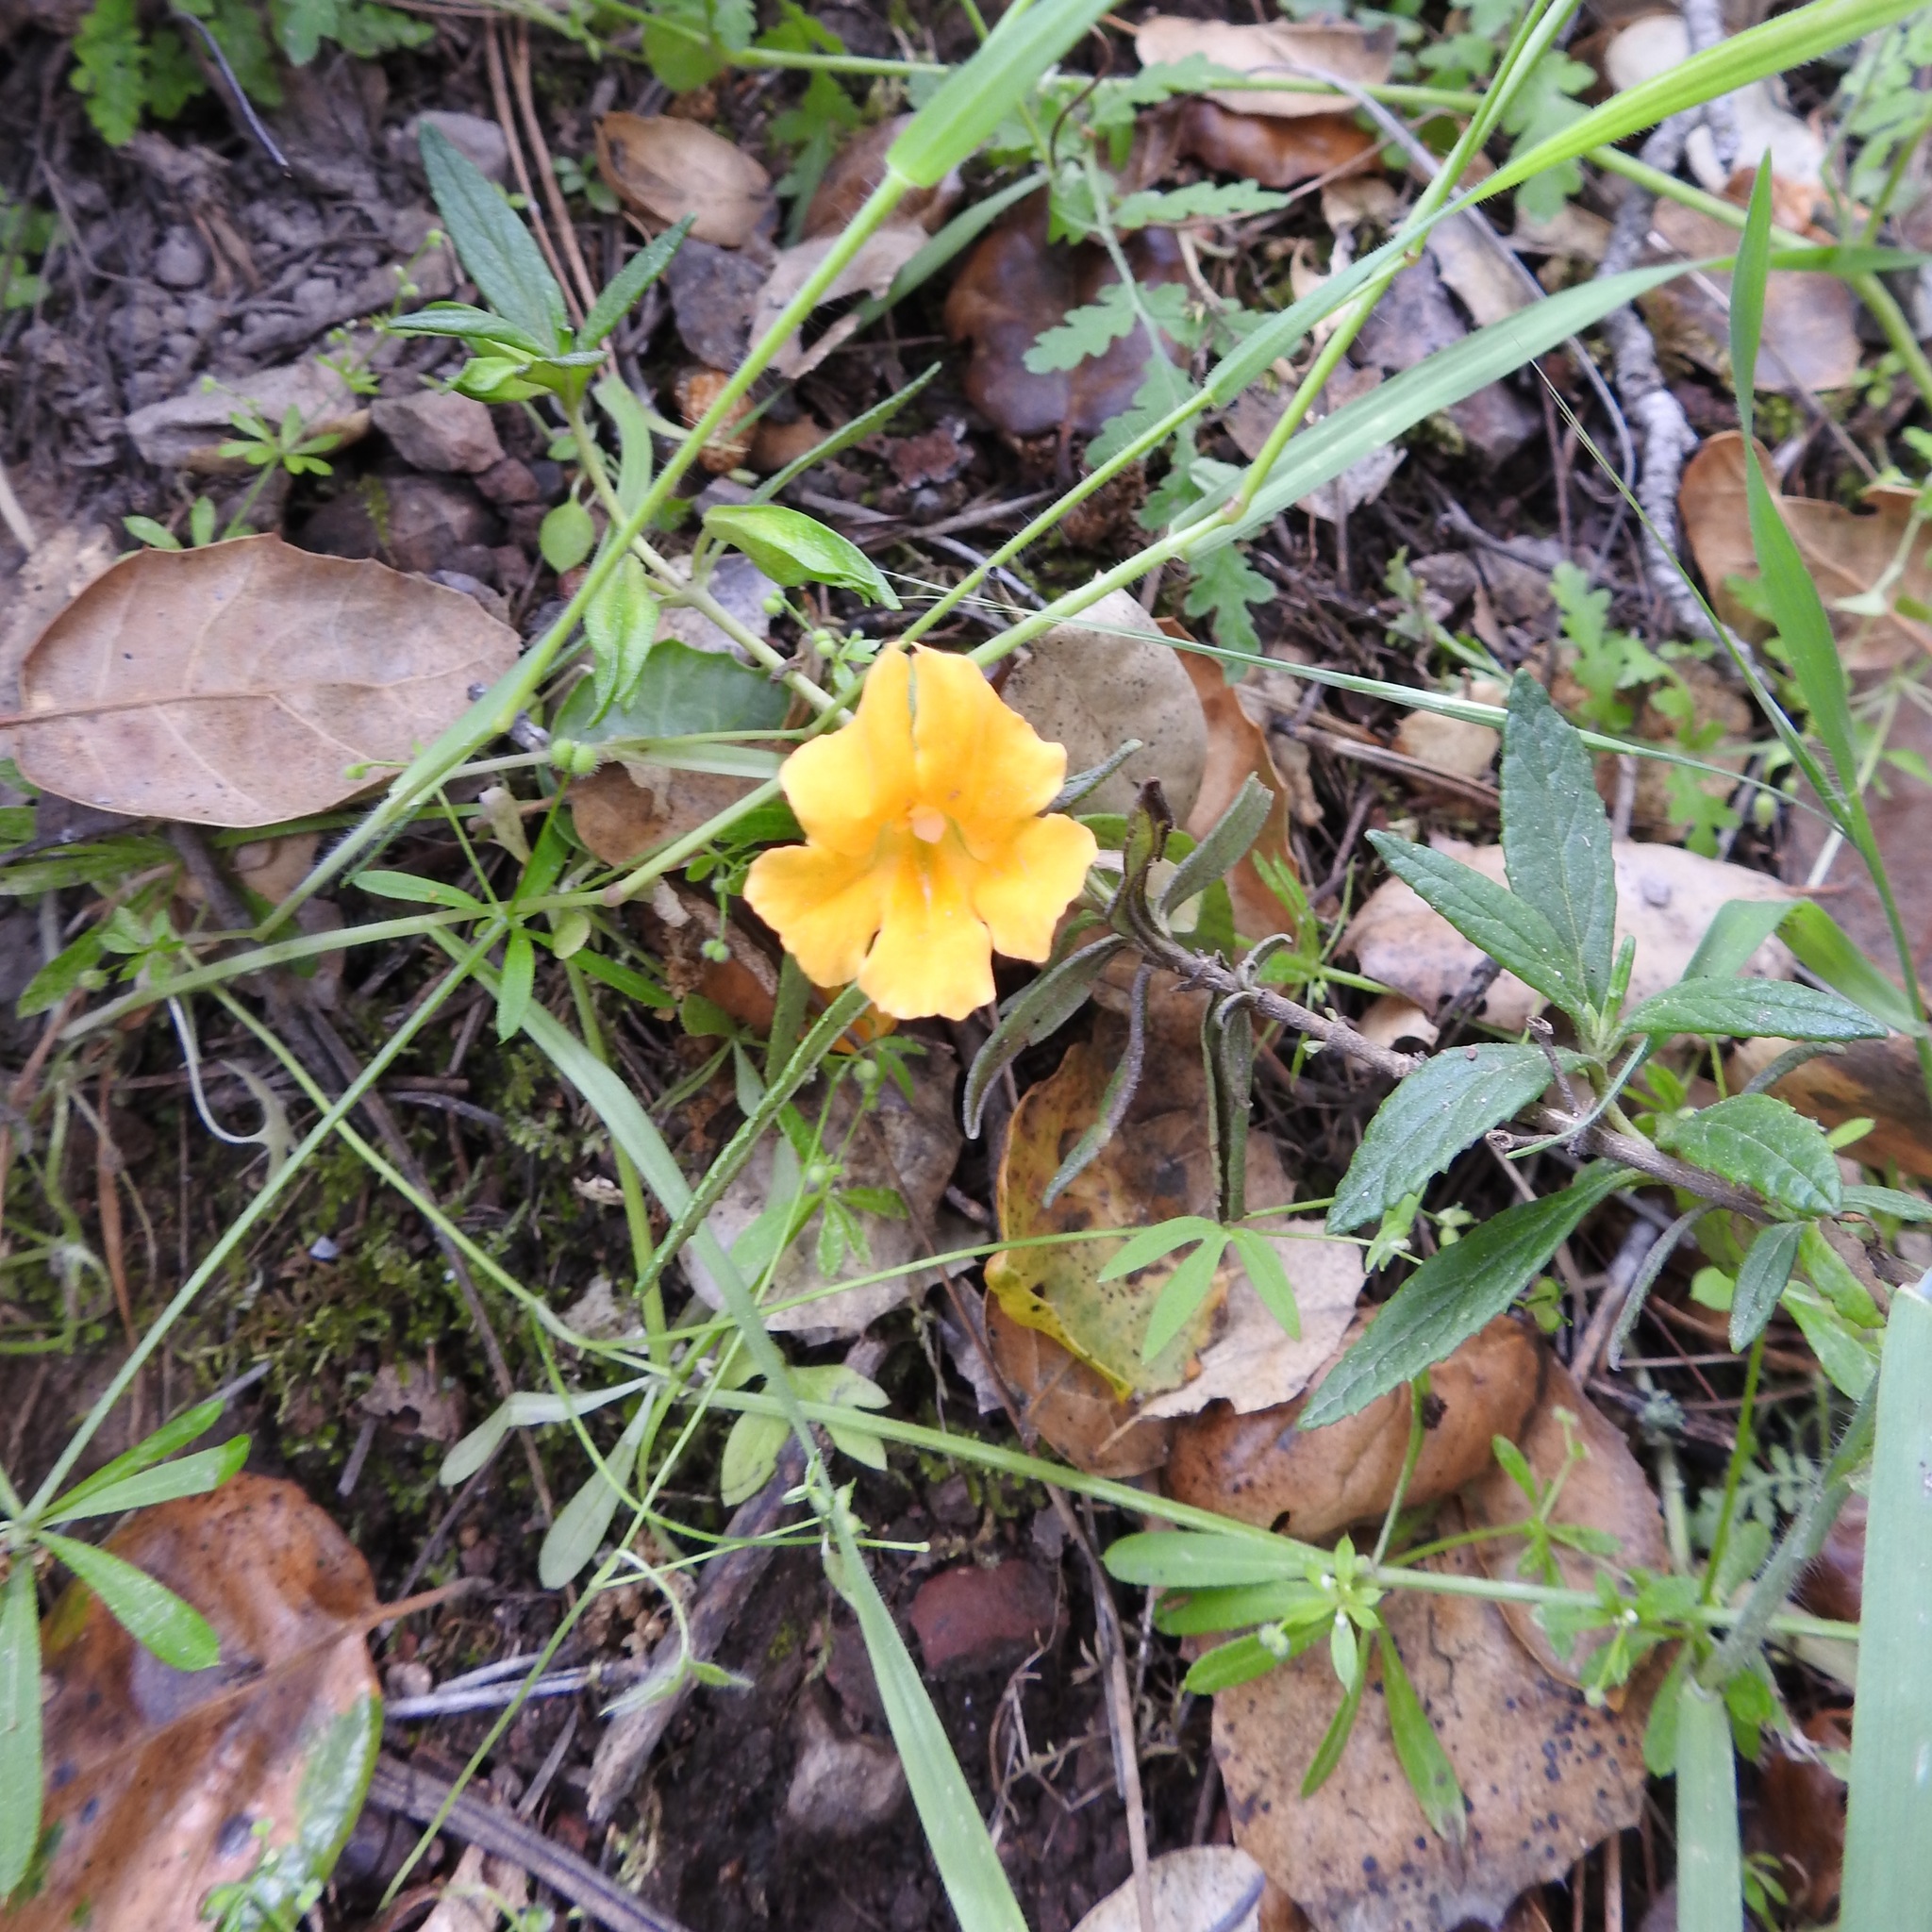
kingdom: Plantae
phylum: Tracheophyta
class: Magnoliopsida
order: Lamiales
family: Phrymaceae
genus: Diplacus
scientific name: Diplacus aurantiacus
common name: Bush monkey-flower
